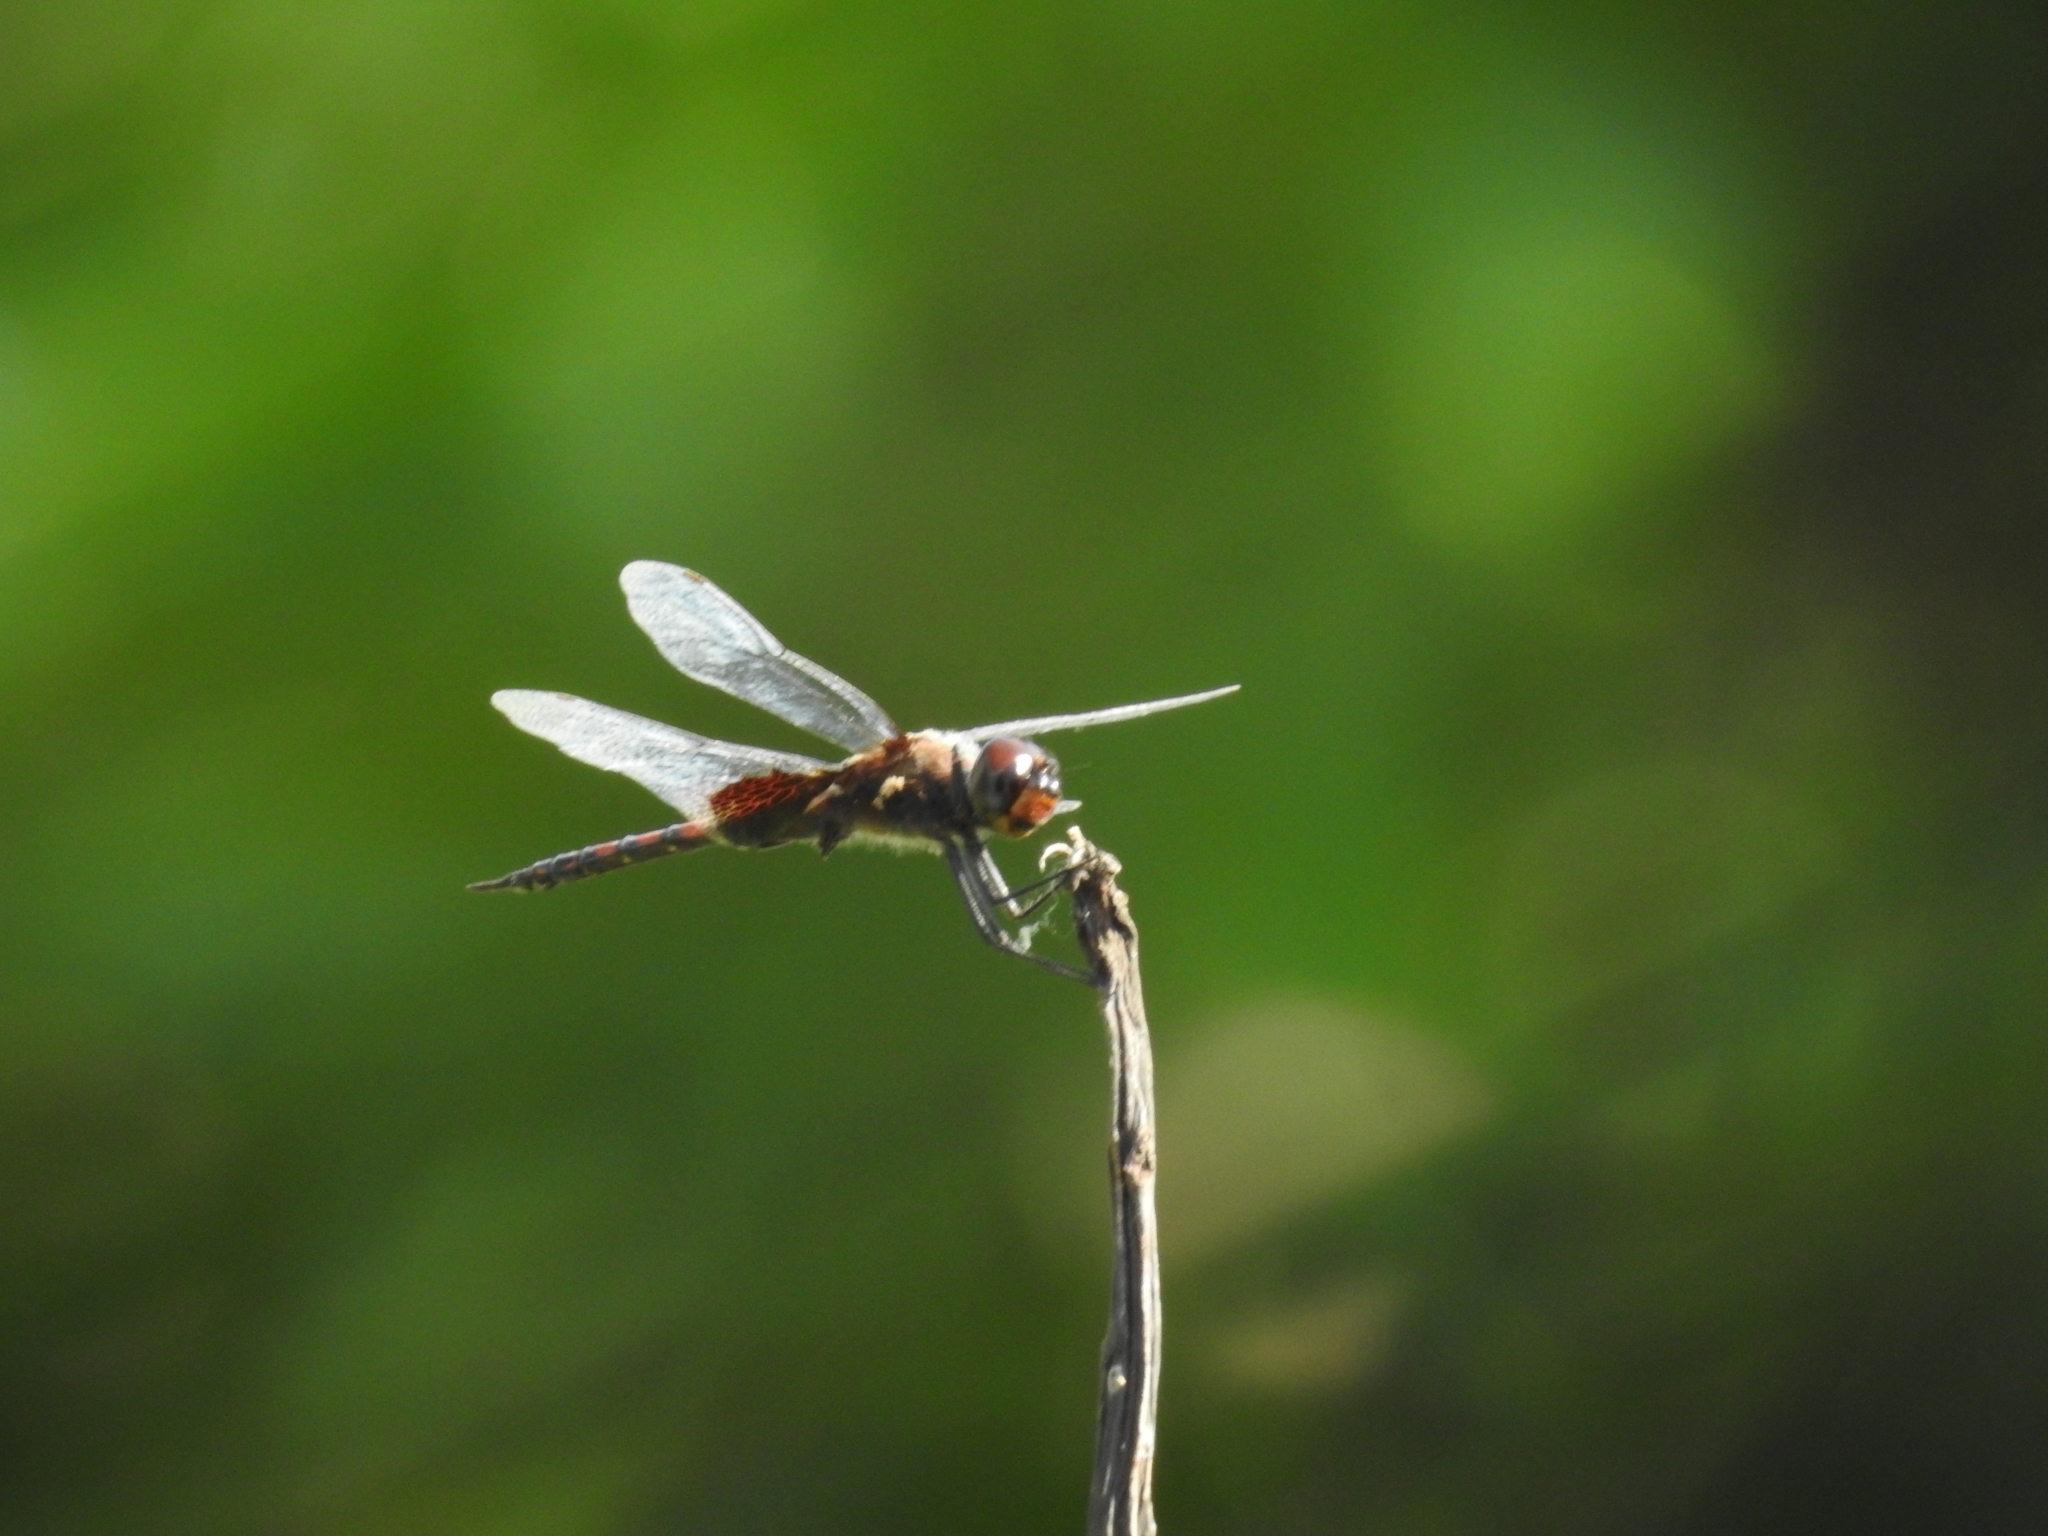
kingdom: Animalia
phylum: Arthropoda
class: Insecta
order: Odonata
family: Libellulidae
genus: Tramea
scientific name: Tramea limbata
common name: Ferruginous glider
